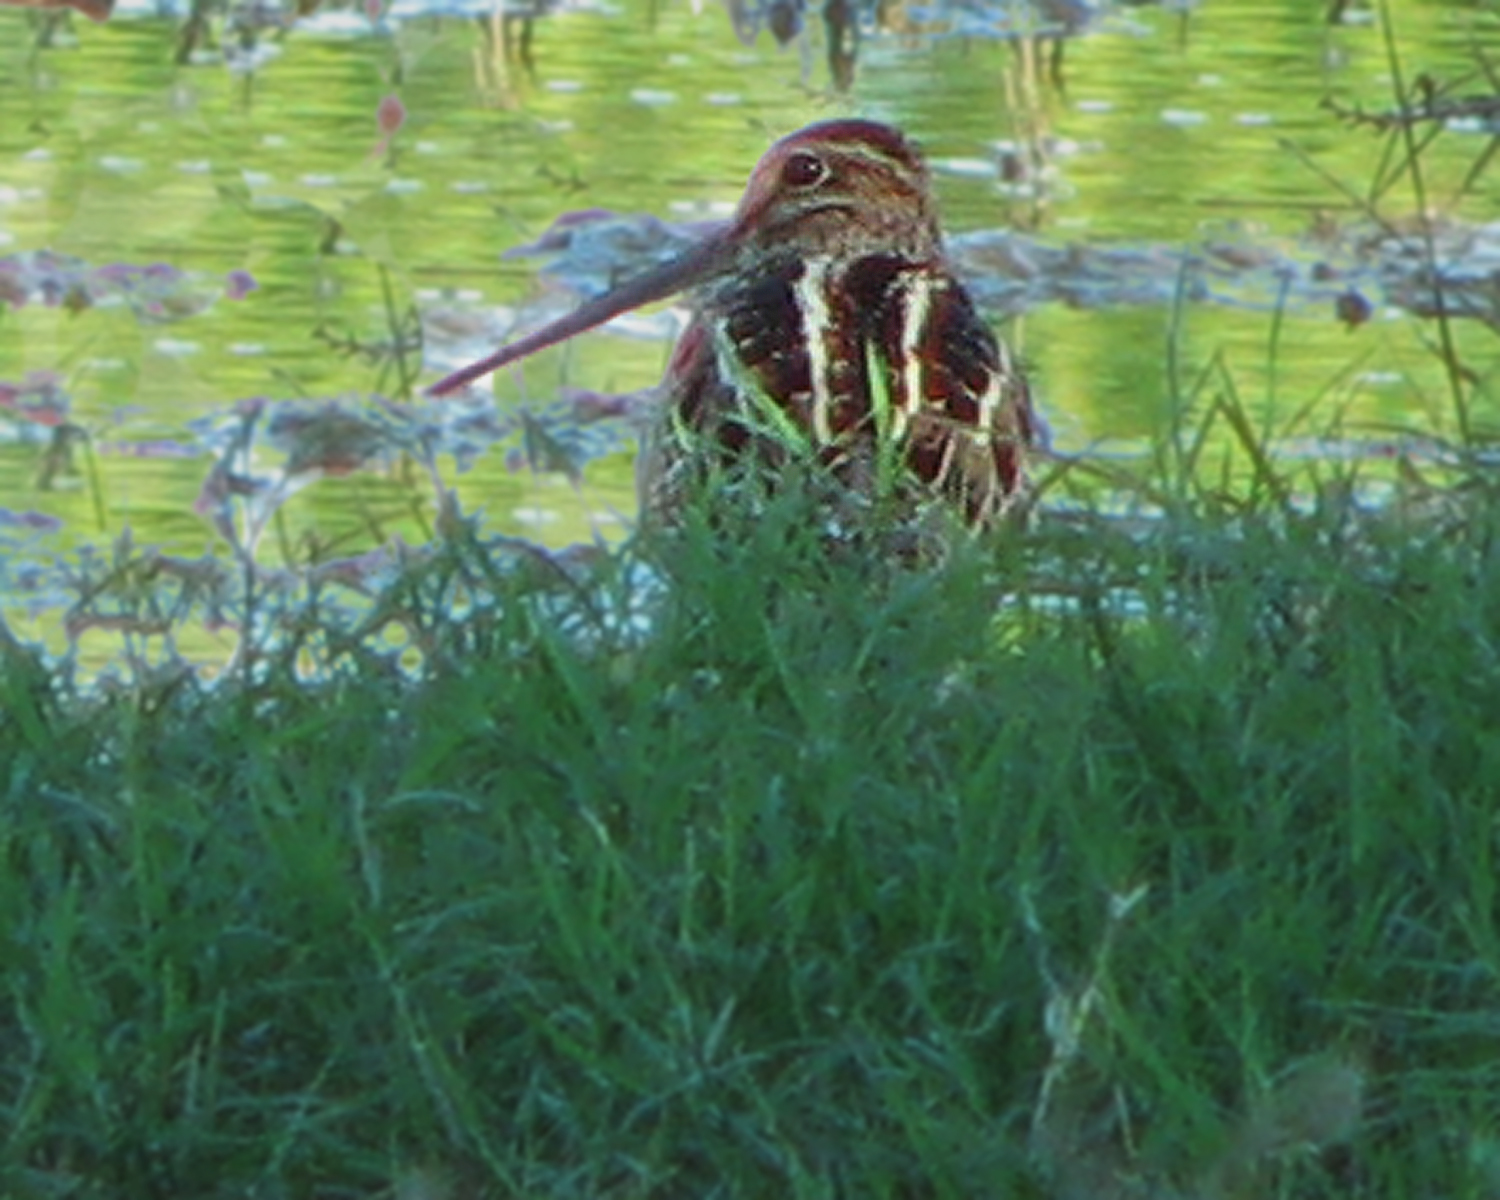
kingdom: Animalia
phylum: Chordata
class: Aves
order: Charadriiformes
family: Scolopacidae
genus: Gallinago
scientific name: Gallinago hardwickii
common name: Latham's snipe
